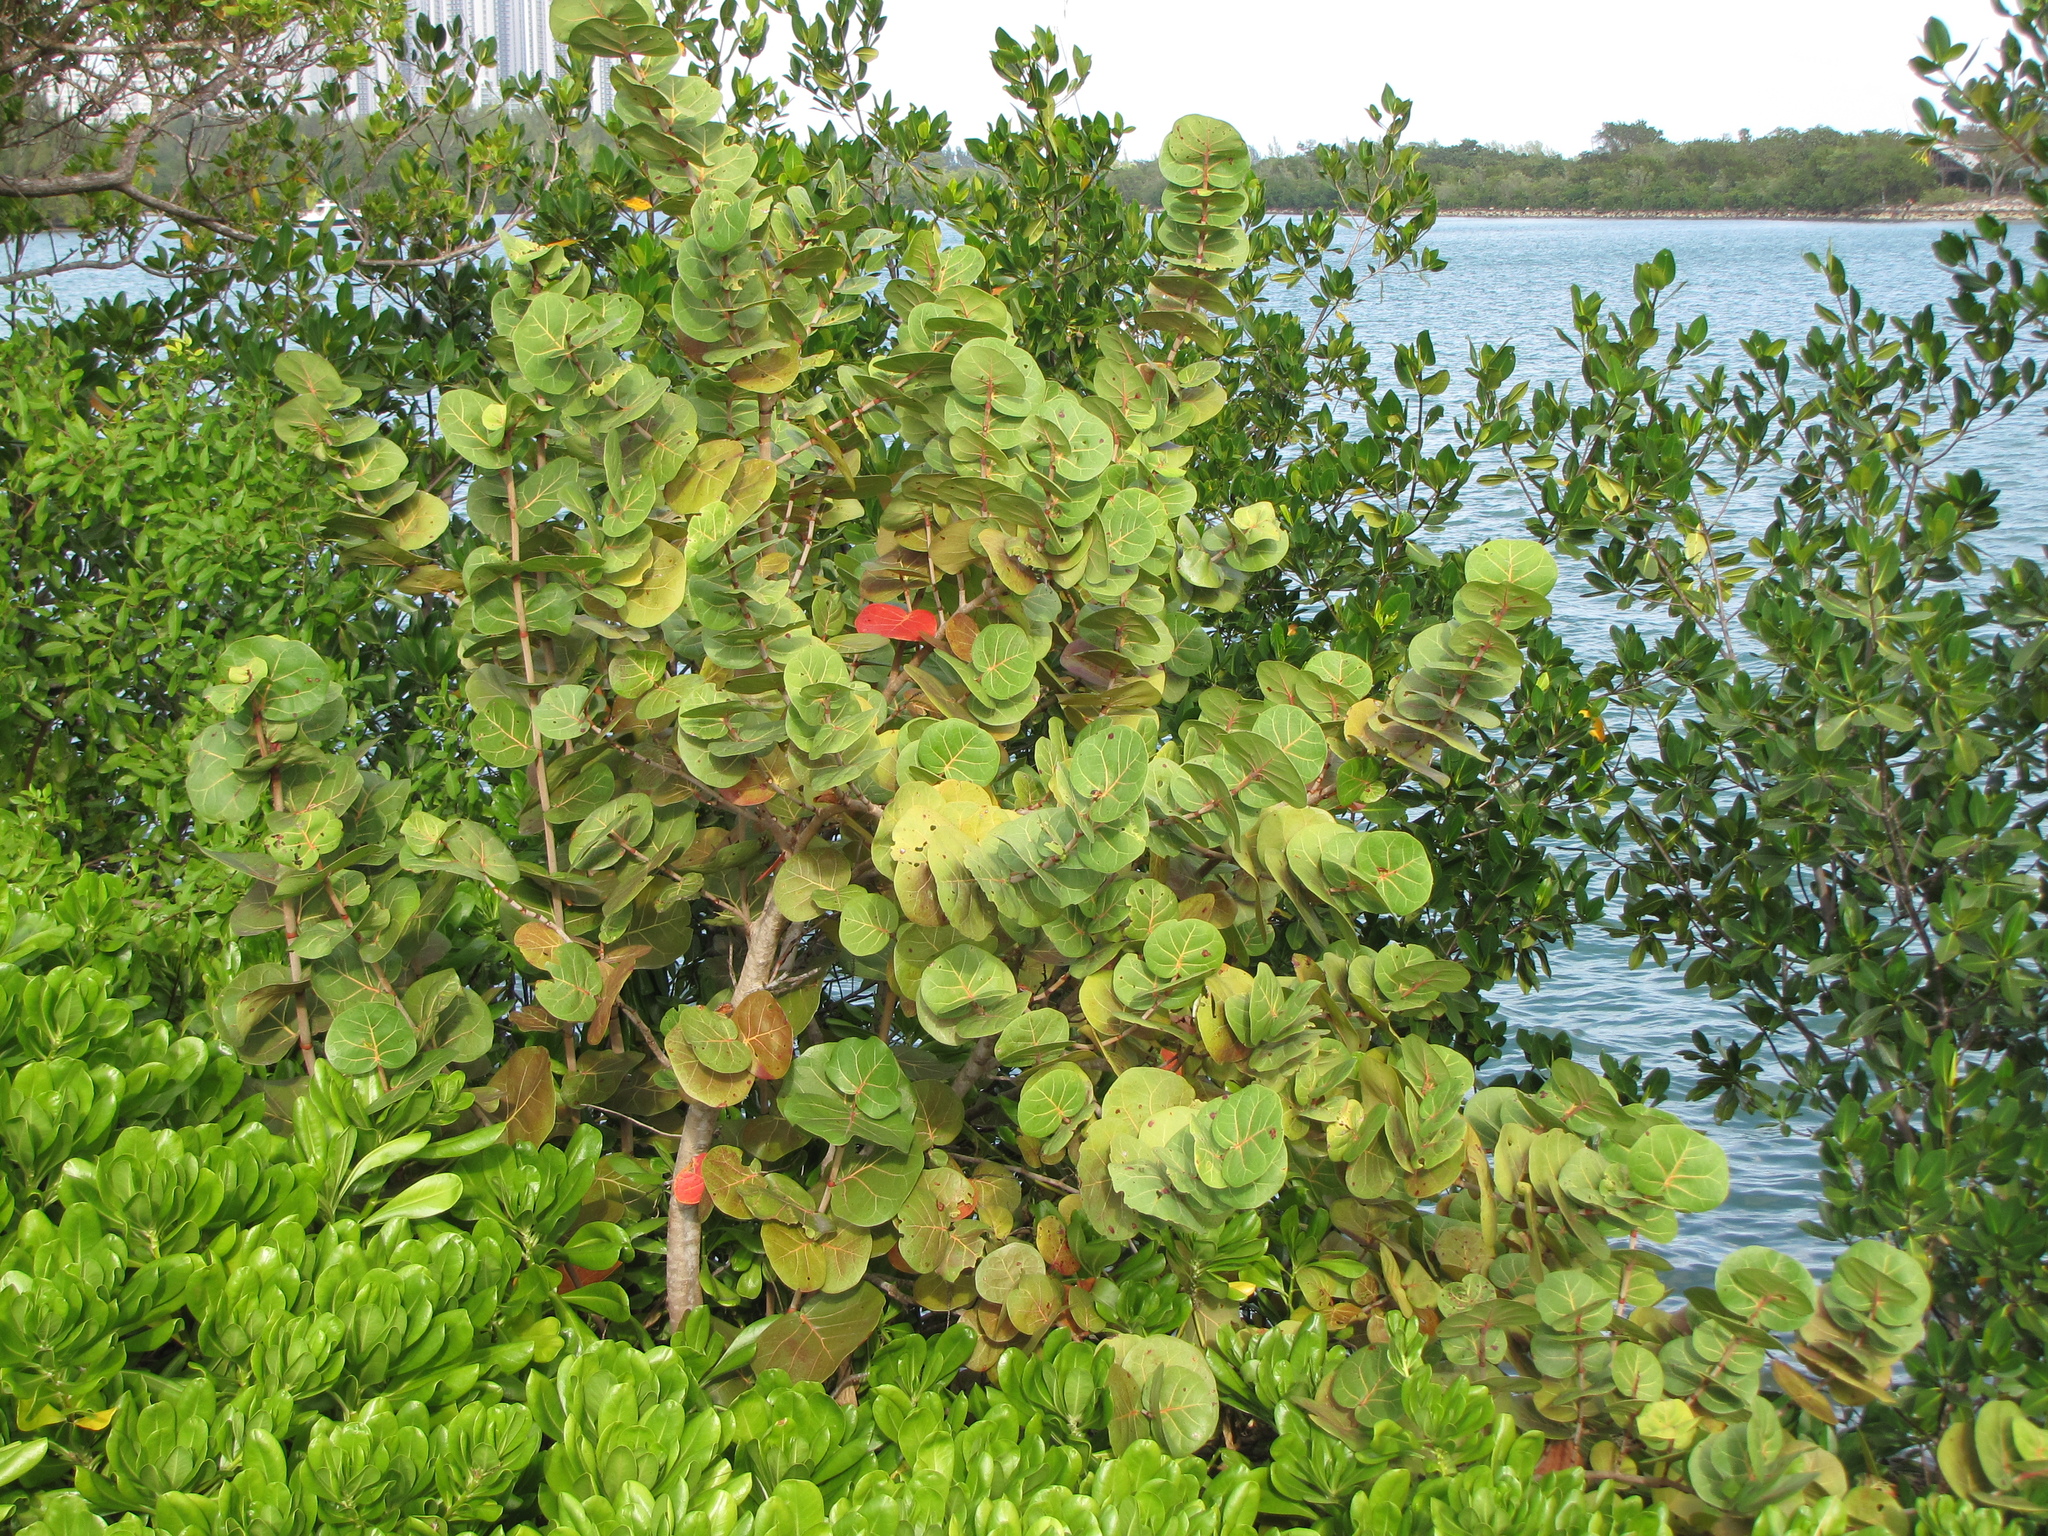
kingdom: Plantae
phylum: Tracheophyta
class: Magnoliopsida
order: Caryophyllales
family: Polygonaceae
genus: Coccoloba
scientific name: Coccoloba uvifera
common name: Seagrape
